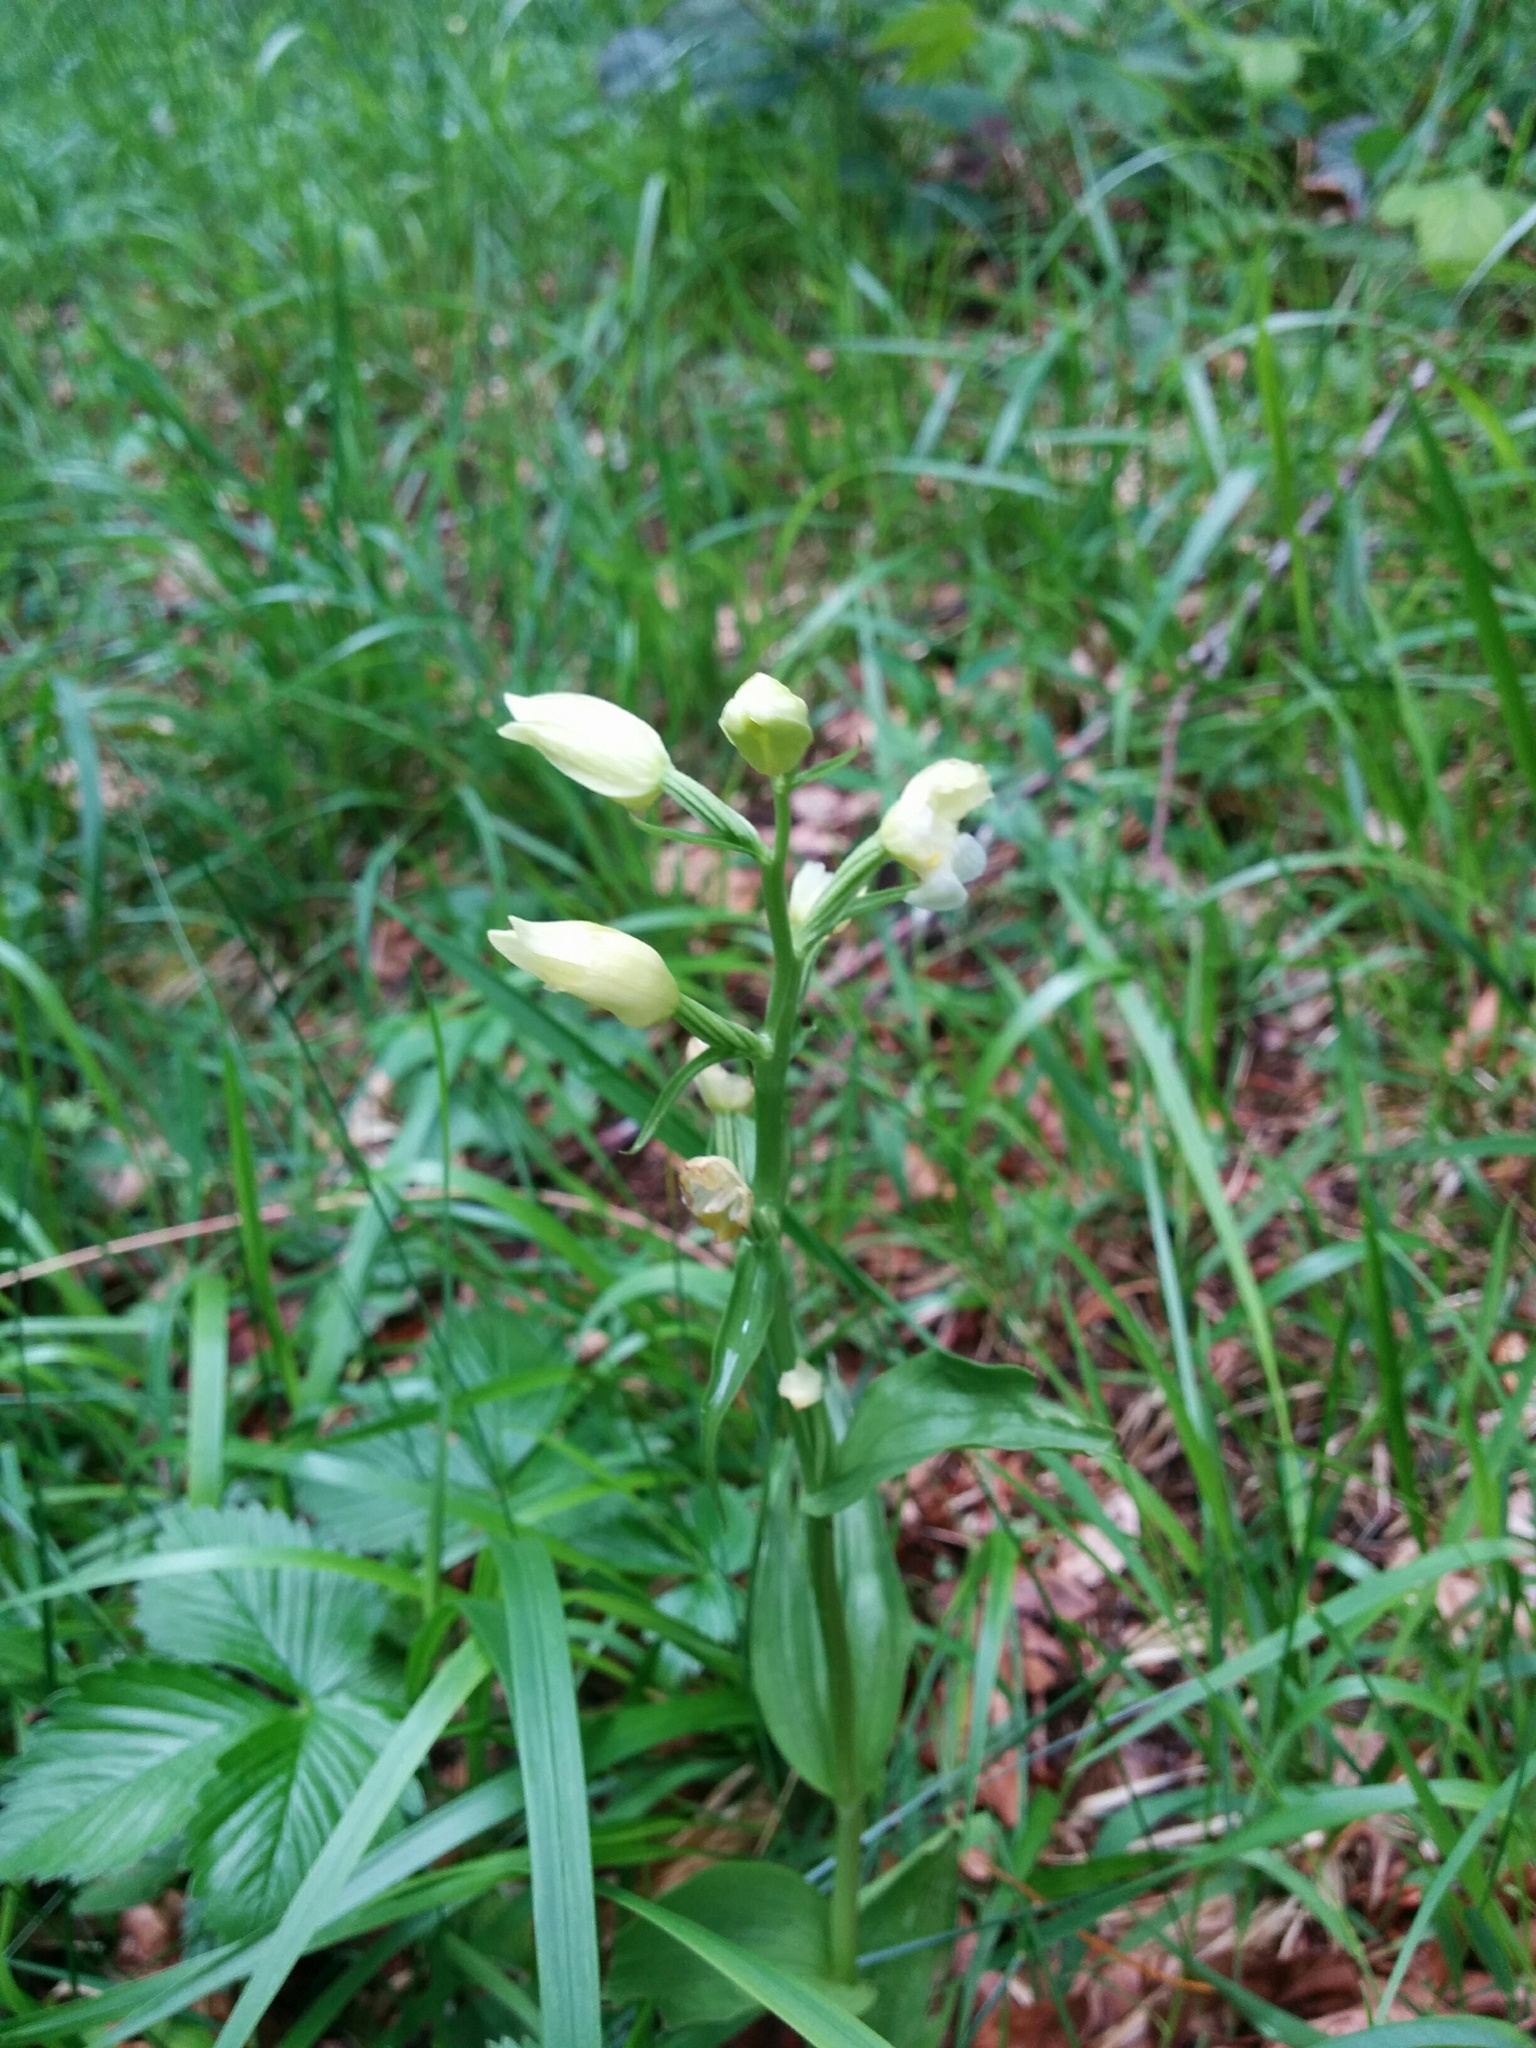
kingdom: Plantae
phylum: Tracheophyta
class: Liliopsida
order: Asparagales
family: Orchidaceae
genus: Cephalanthera
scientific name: Cephalanthera damasonium
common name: White helleborine
